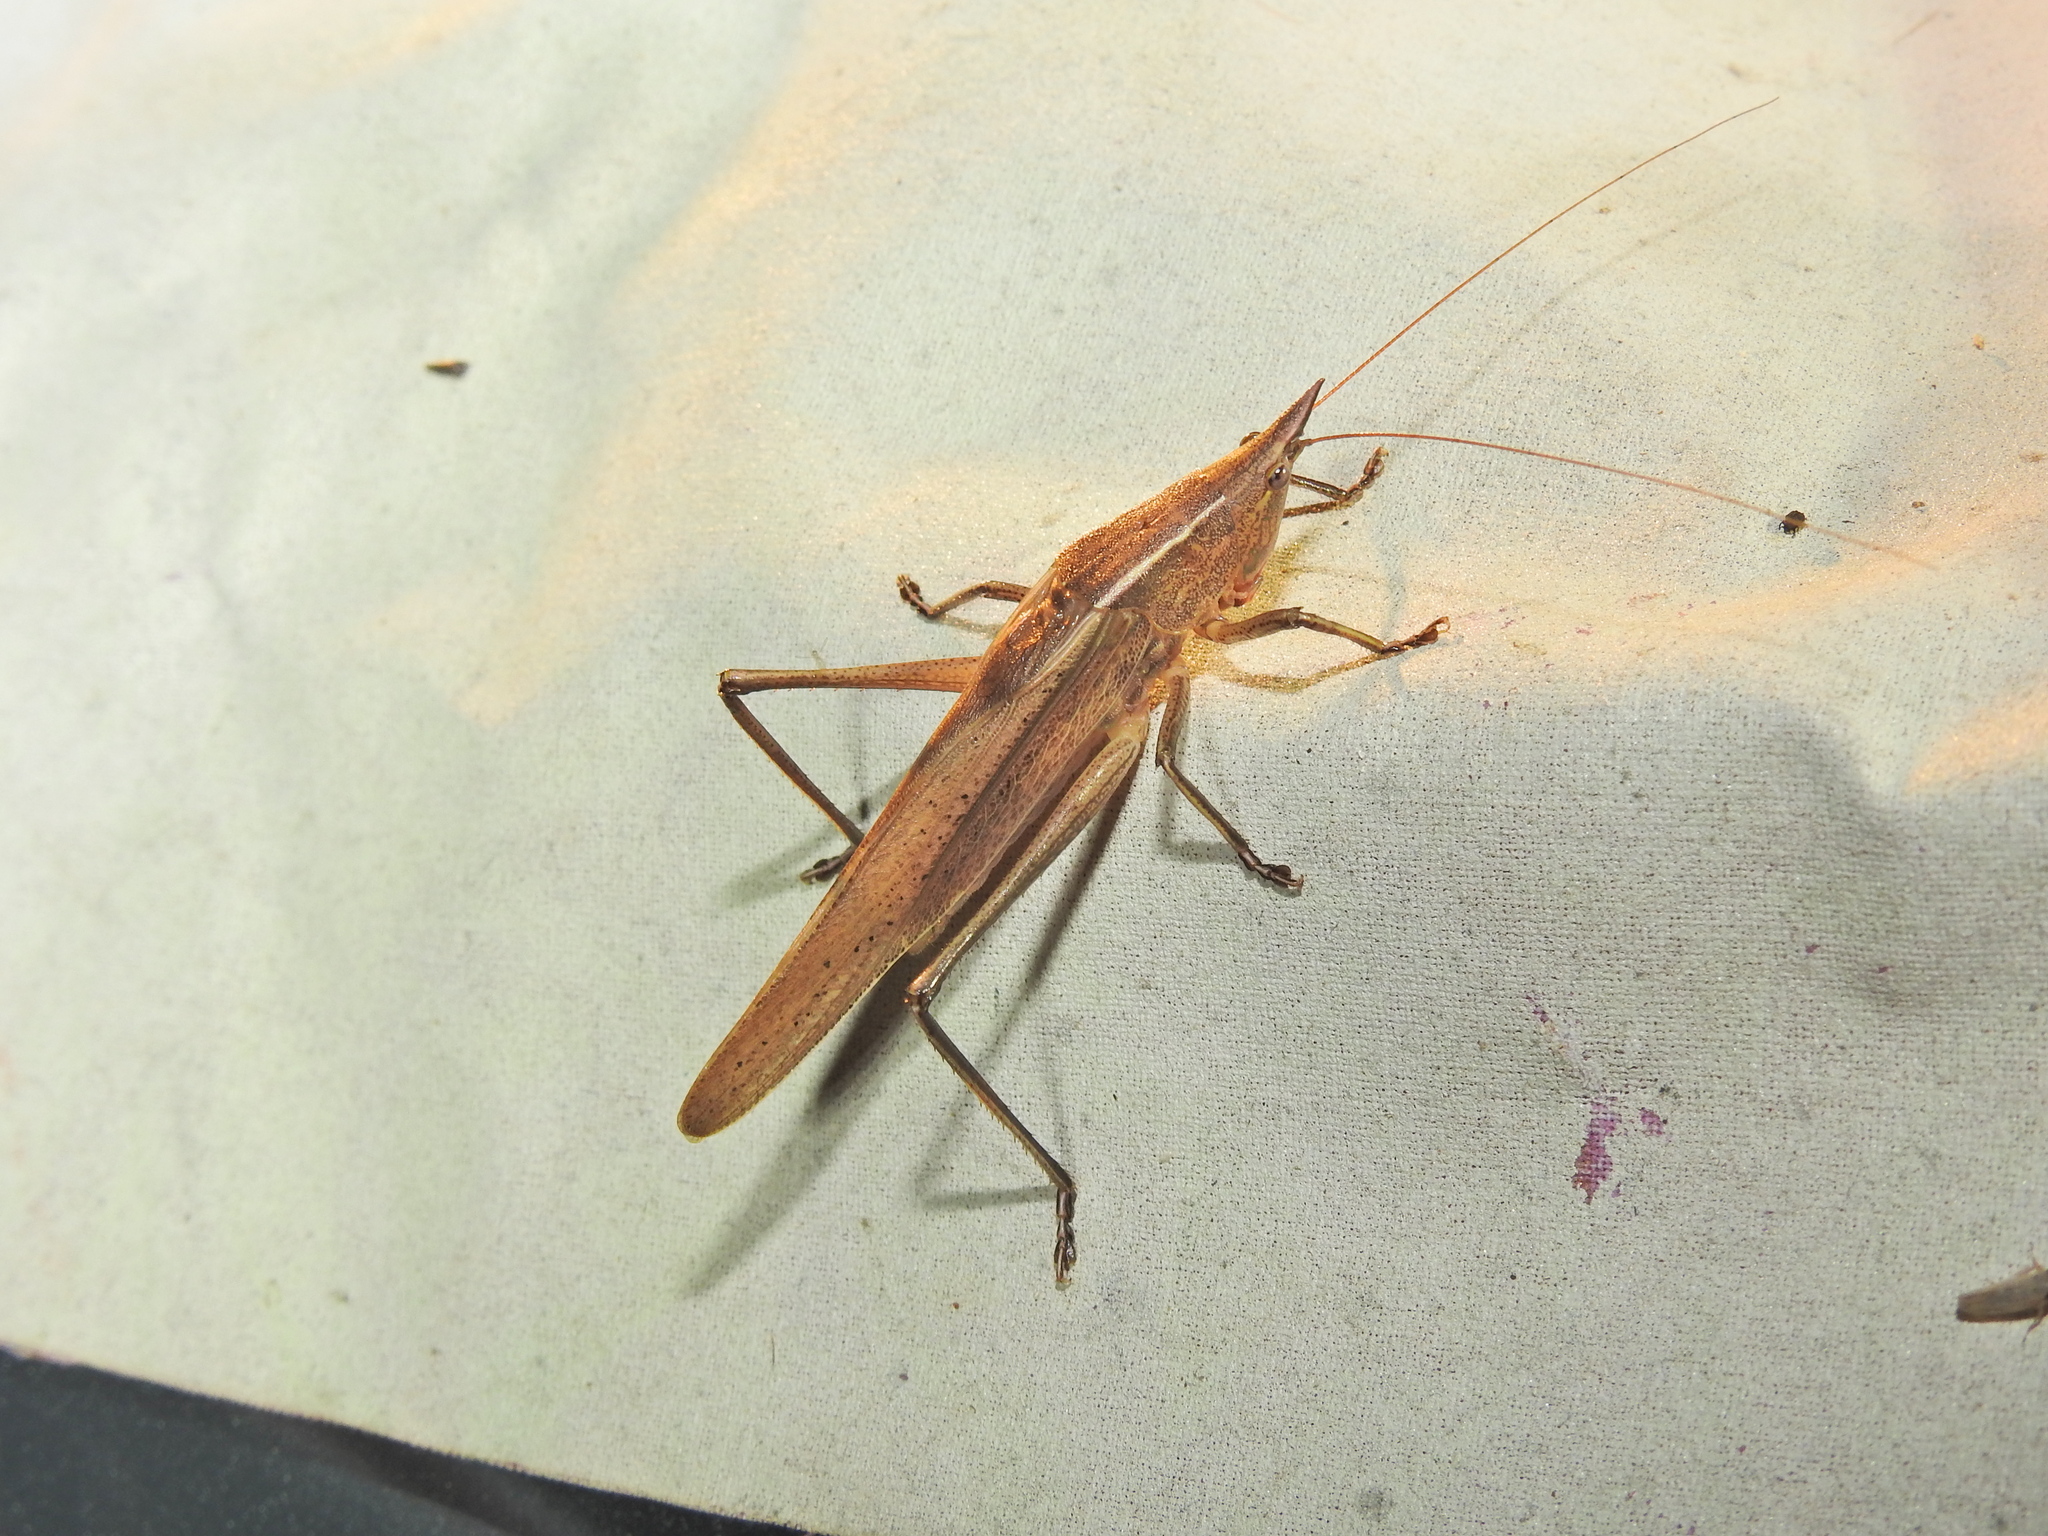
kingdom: Animalia
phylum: Arthropoda
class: Insecta
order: Orthoptera
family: Tettigoniidae
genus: Pseudorhynchus
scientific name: Pseudorhynchus mimeticus
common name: Mimicking snout-nosed katydid
